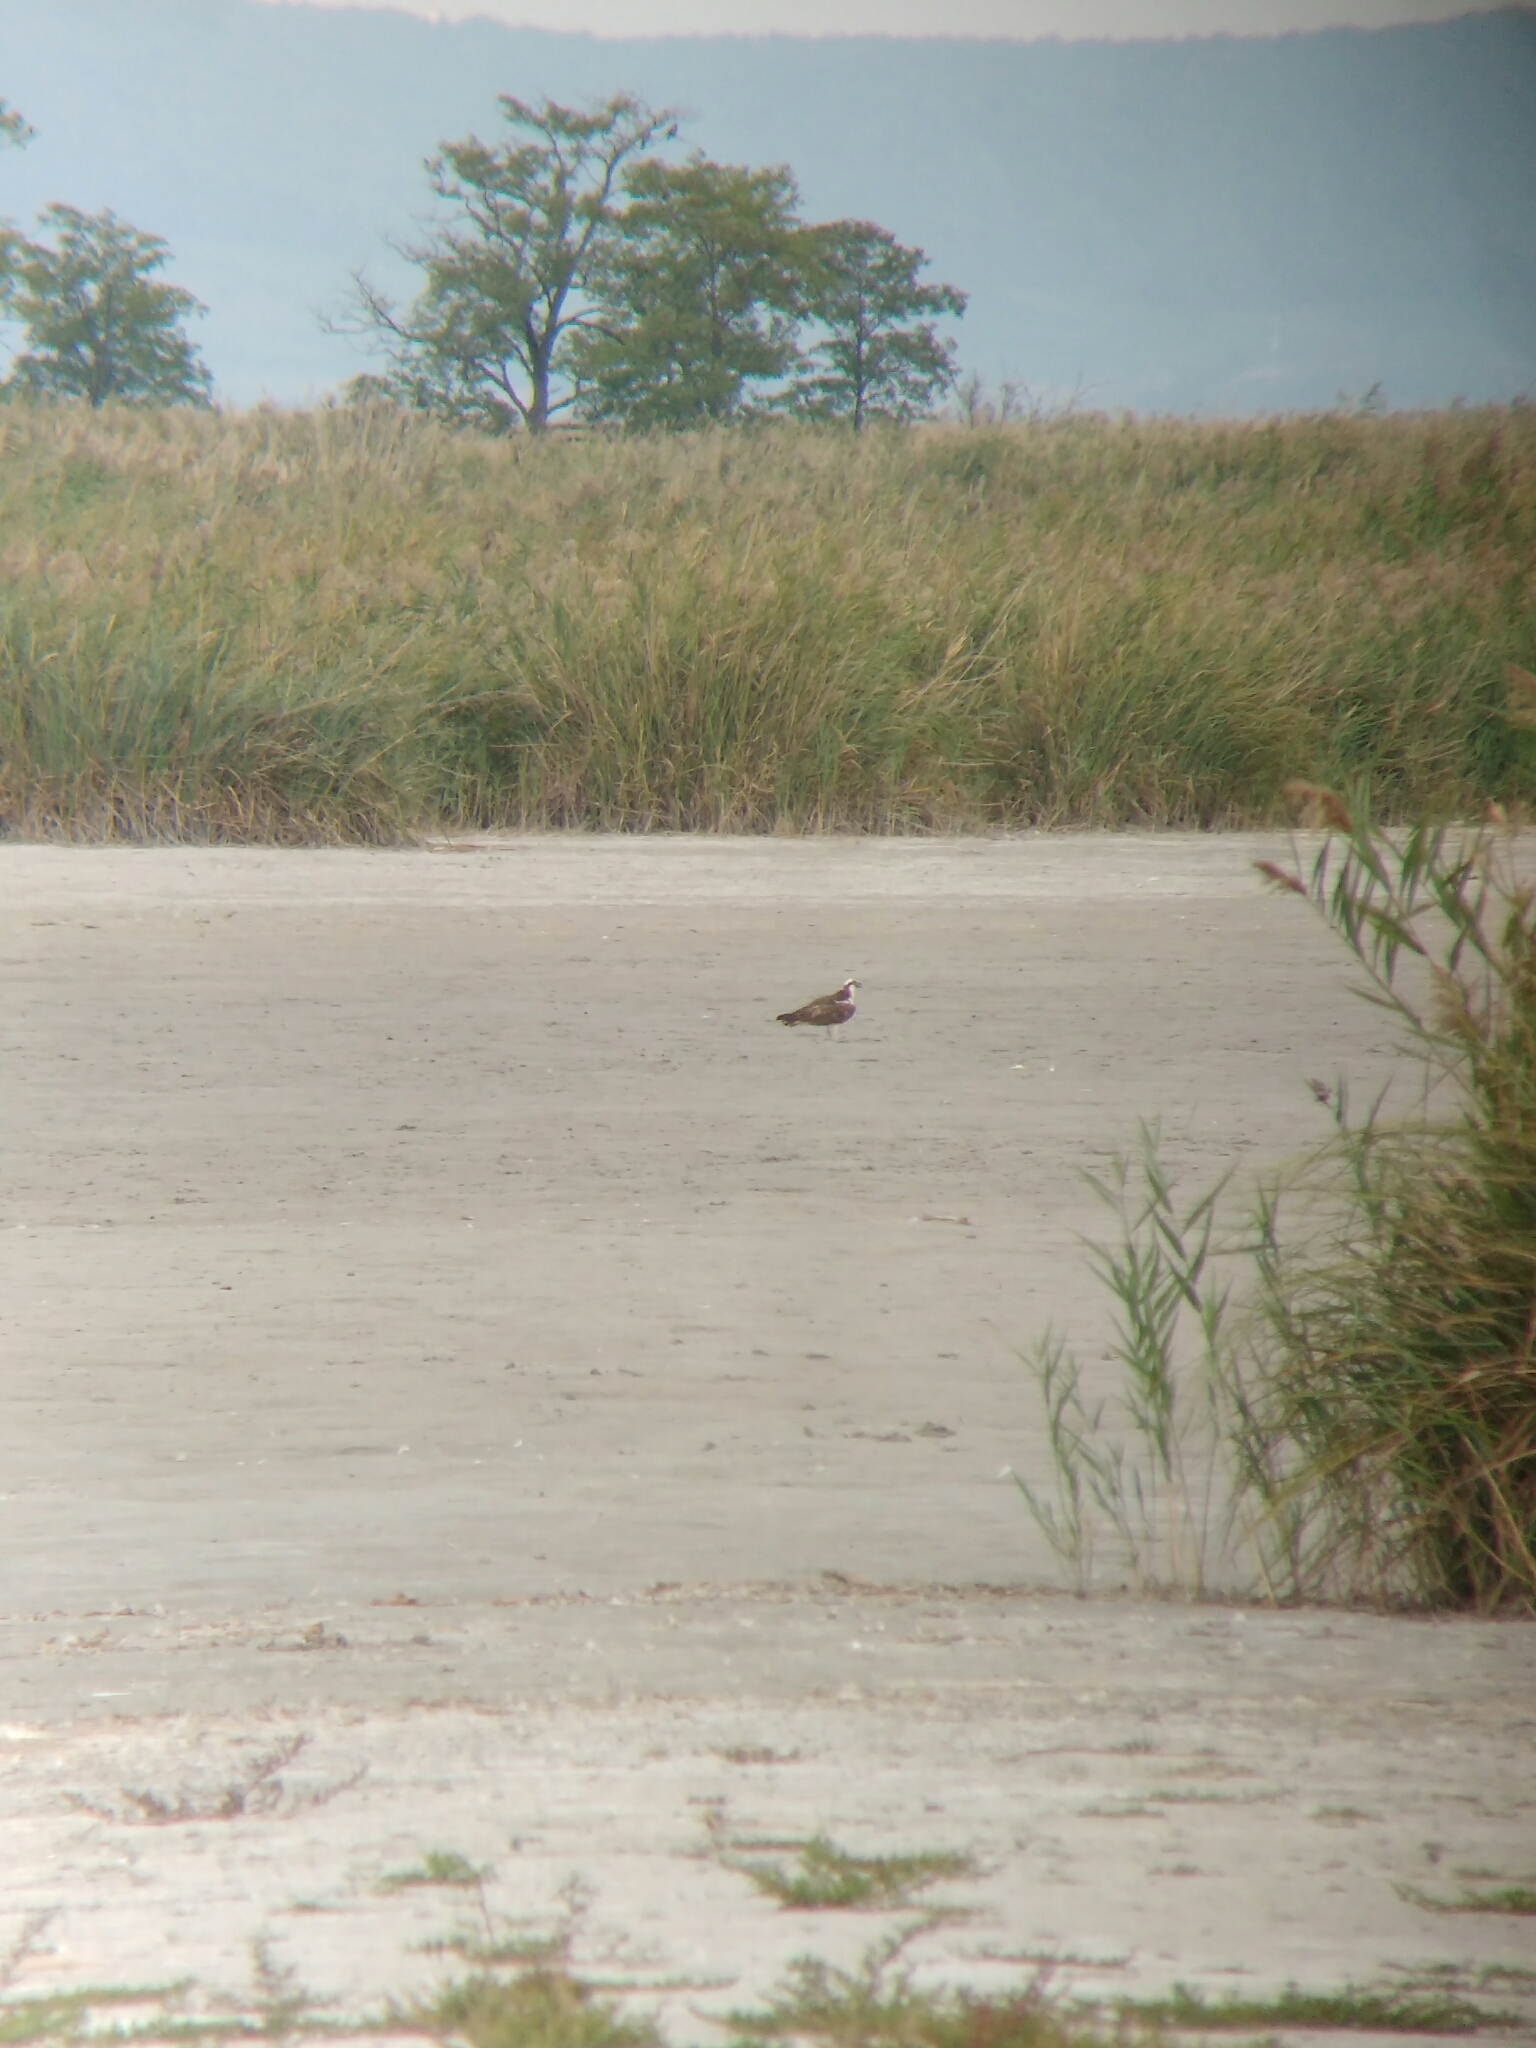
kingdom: Animalia
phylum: Chordata
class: Aves
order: Accipitriformes
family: Pandionidae
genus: Pandion
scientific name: Pandion haliaetus
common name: Osprey
